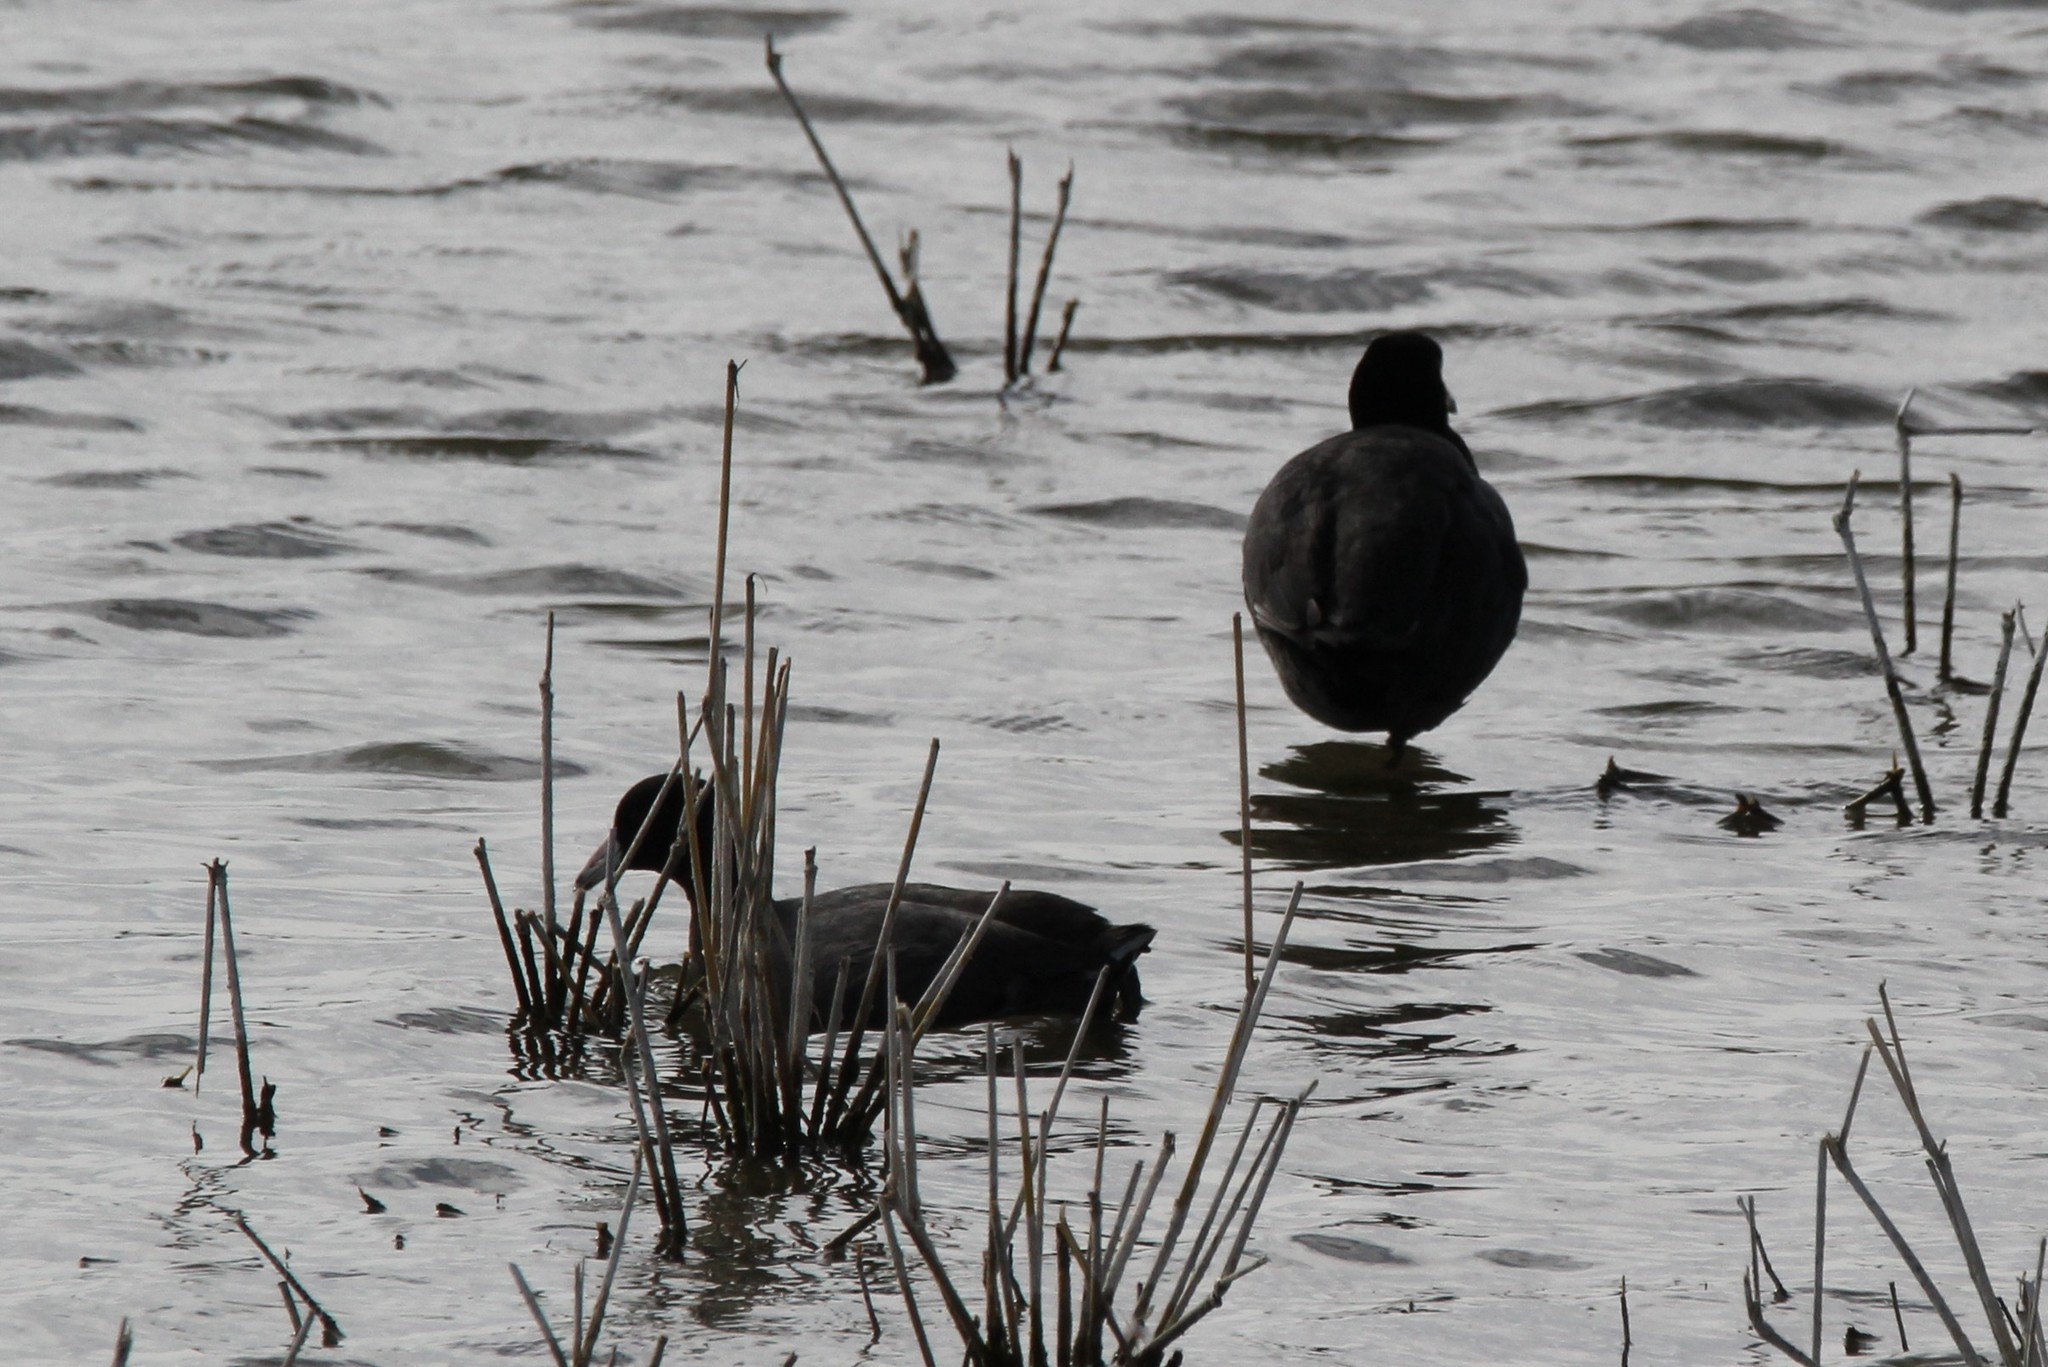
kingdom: Animalia
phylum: Chordata
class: Aves
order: Gruiformes
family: Rallidae
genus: Fulica
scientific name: Fulica americana
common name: American coot
